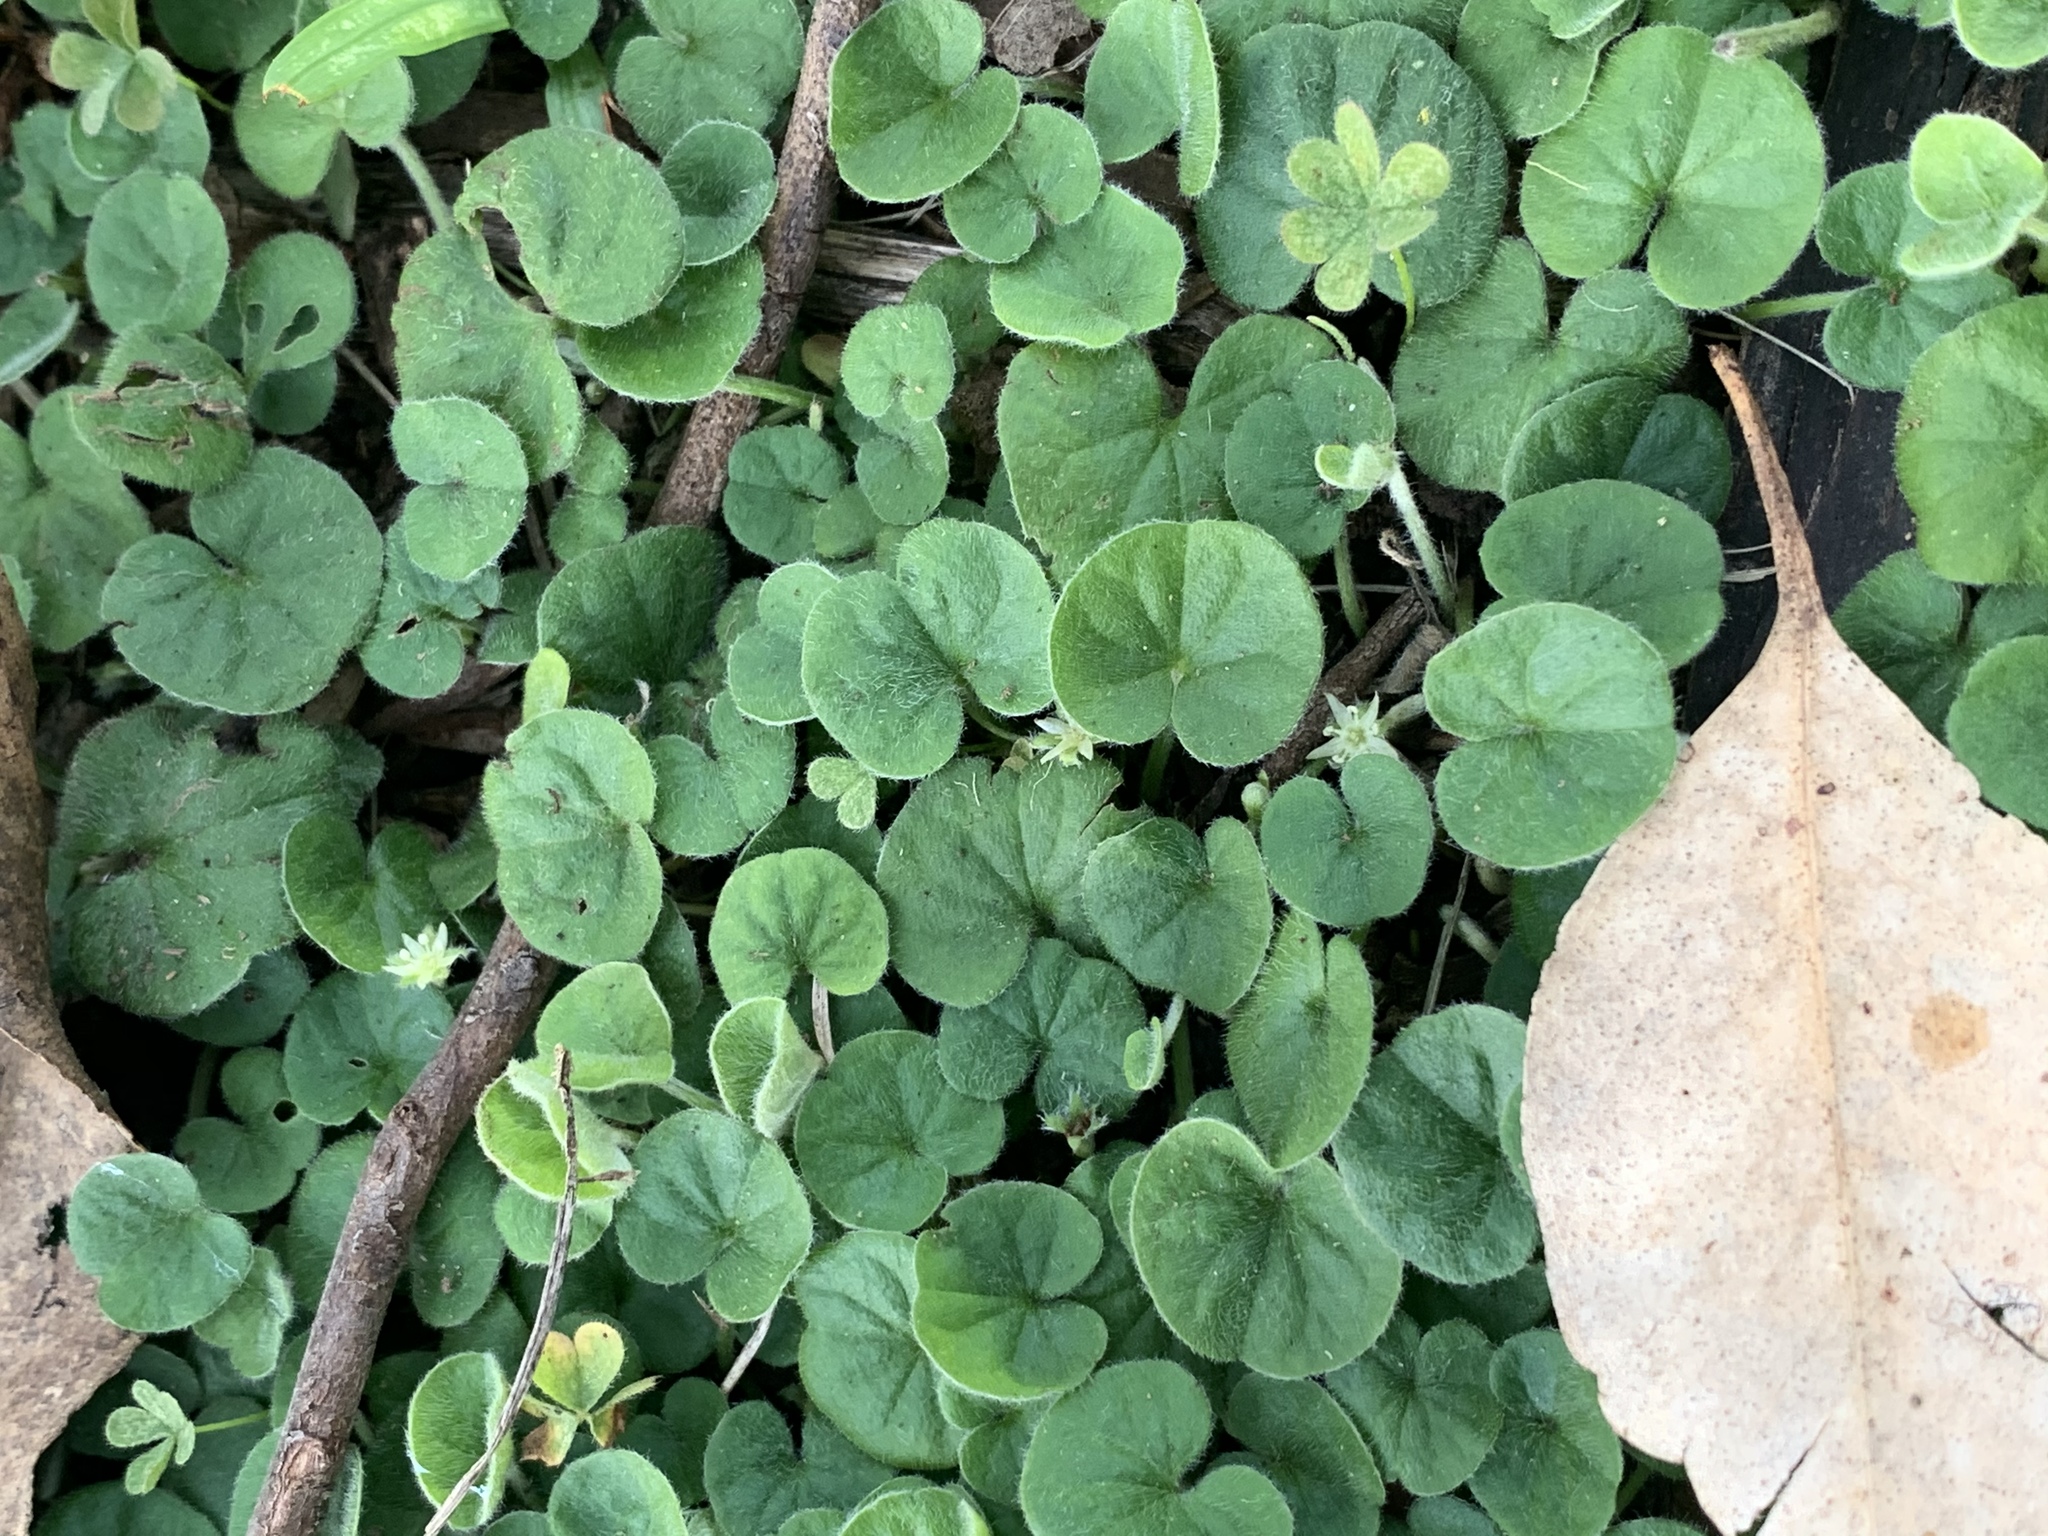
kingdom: Plantae
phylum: Tracheophyta
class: Magnoliopsida
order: Solanales
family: Convolvulaceae
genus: Dichondra
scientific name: Dichondra repens
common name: Kidneyweed
